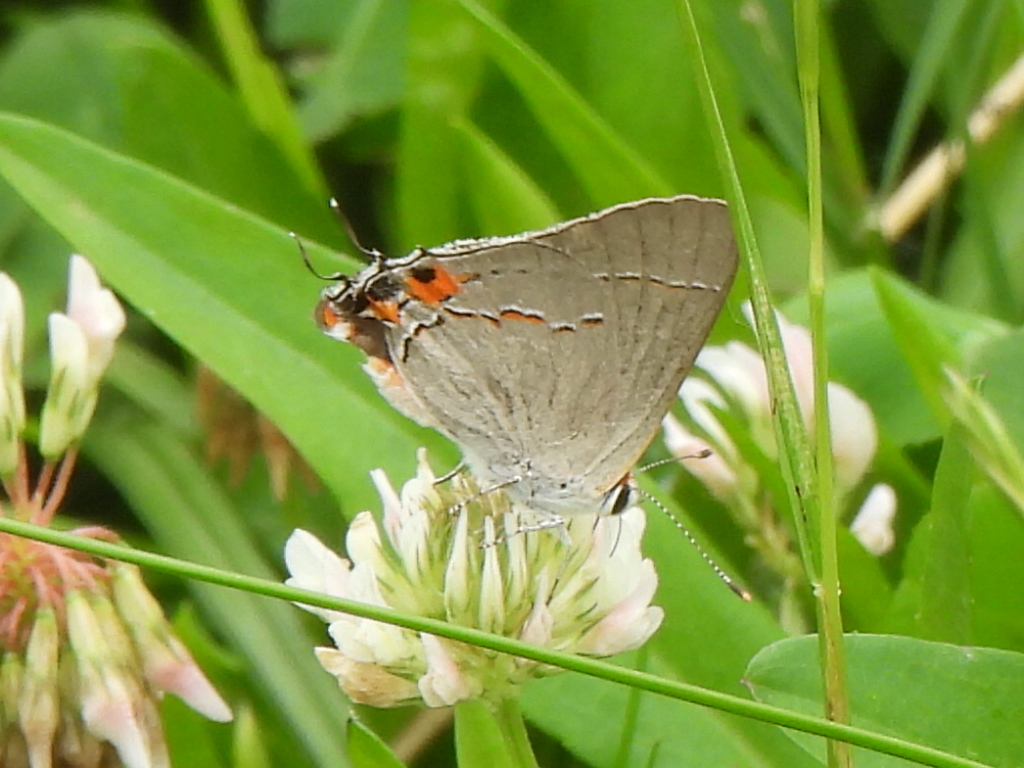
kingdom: Animalia
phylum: Arthropoda
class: Insecta
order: Lepidoptera
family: Lycaenidae
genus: Strymon
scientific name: Strymon melinus
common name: Gray hairstreak
